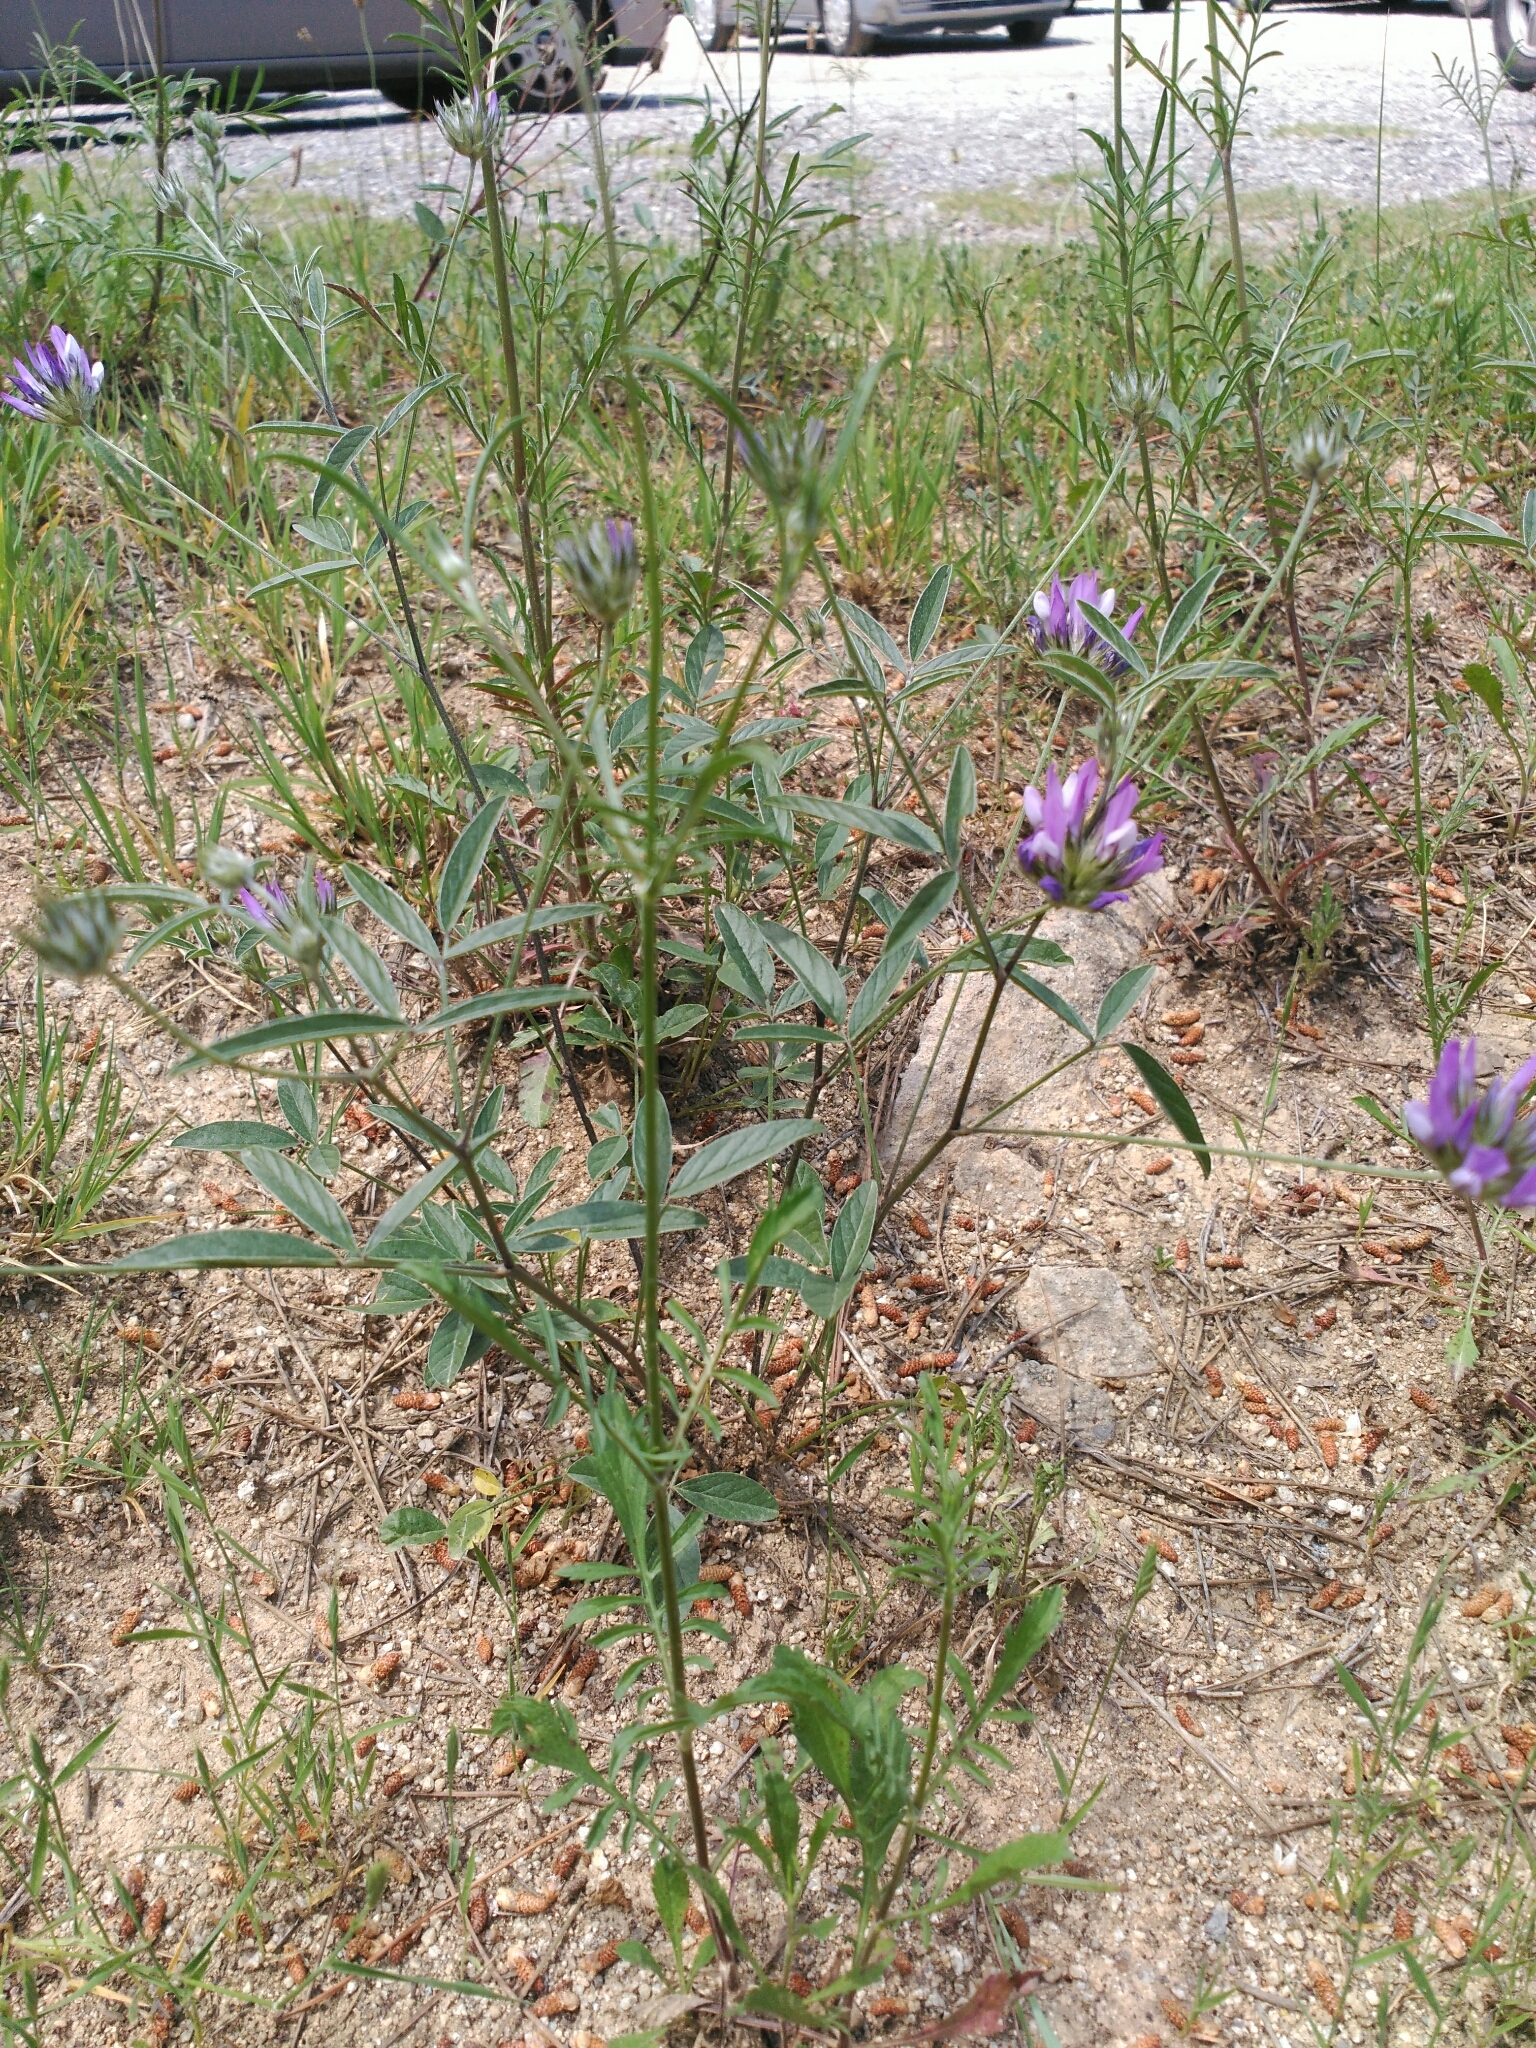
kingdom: Plantae
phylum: Tracheophyta
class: Magnoliopsida
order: Fabales
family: Fabaceae
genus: Bituminaria
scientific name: Bituminaria bituminosa
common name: Arabian pea
